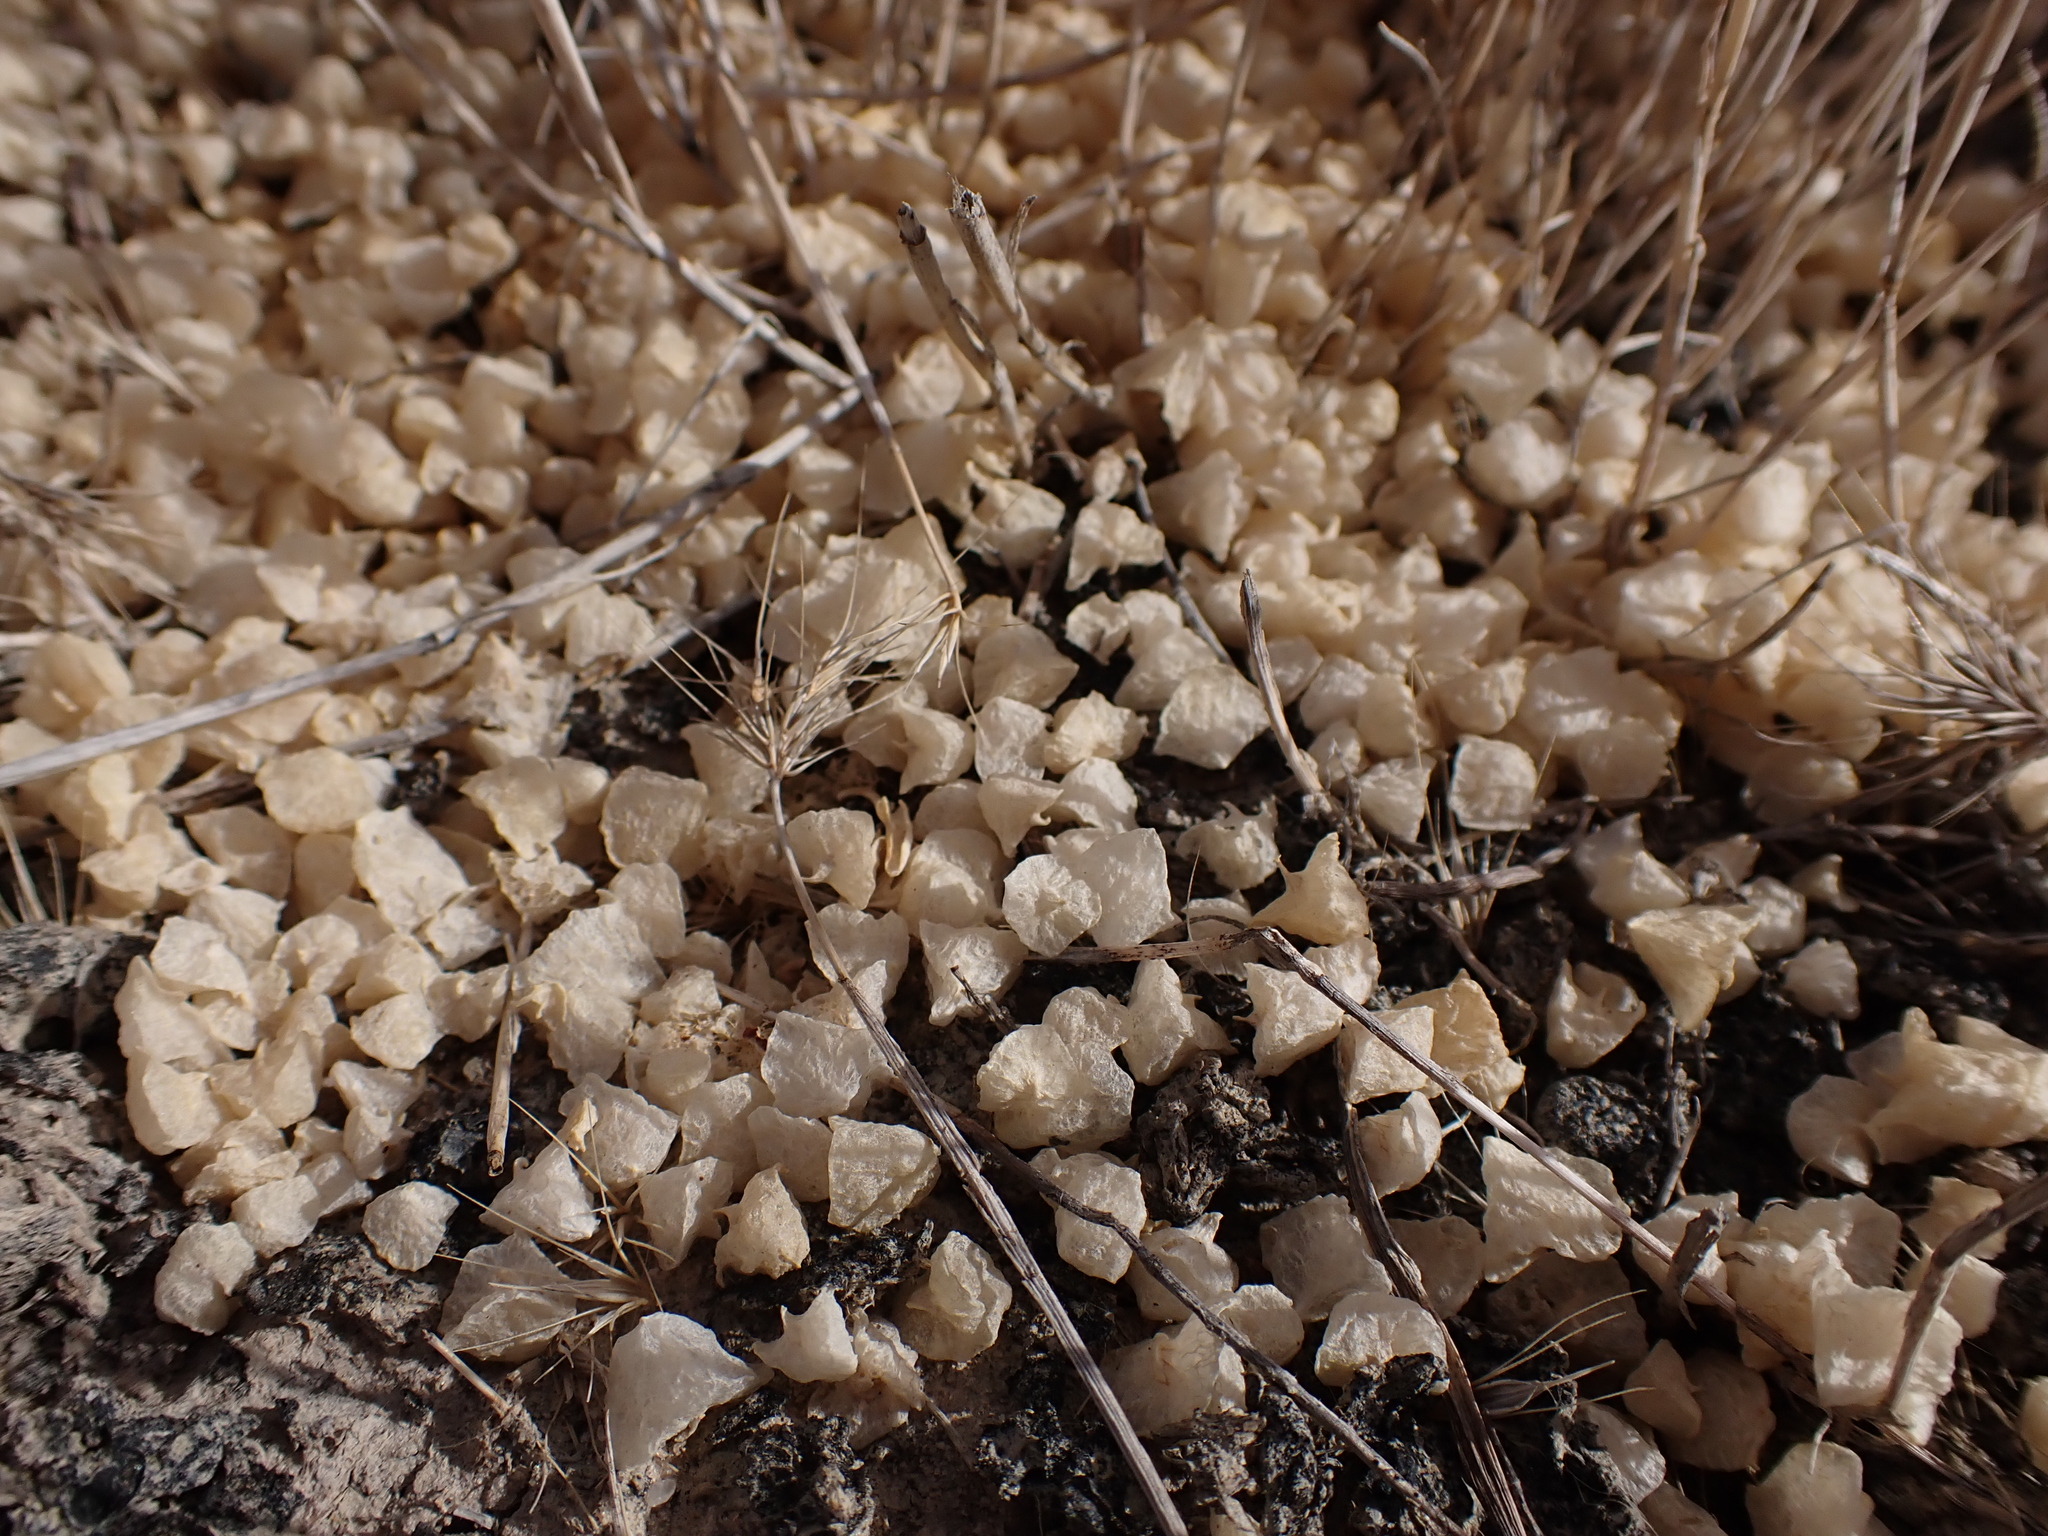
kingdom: Plantae
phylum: Tracheophyta
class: Magnoliopsida
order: Caryophyllales
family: Amaranthaceae
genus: Atriplex
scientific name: Atriplex lindleyi
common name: Lindley's saltbush
